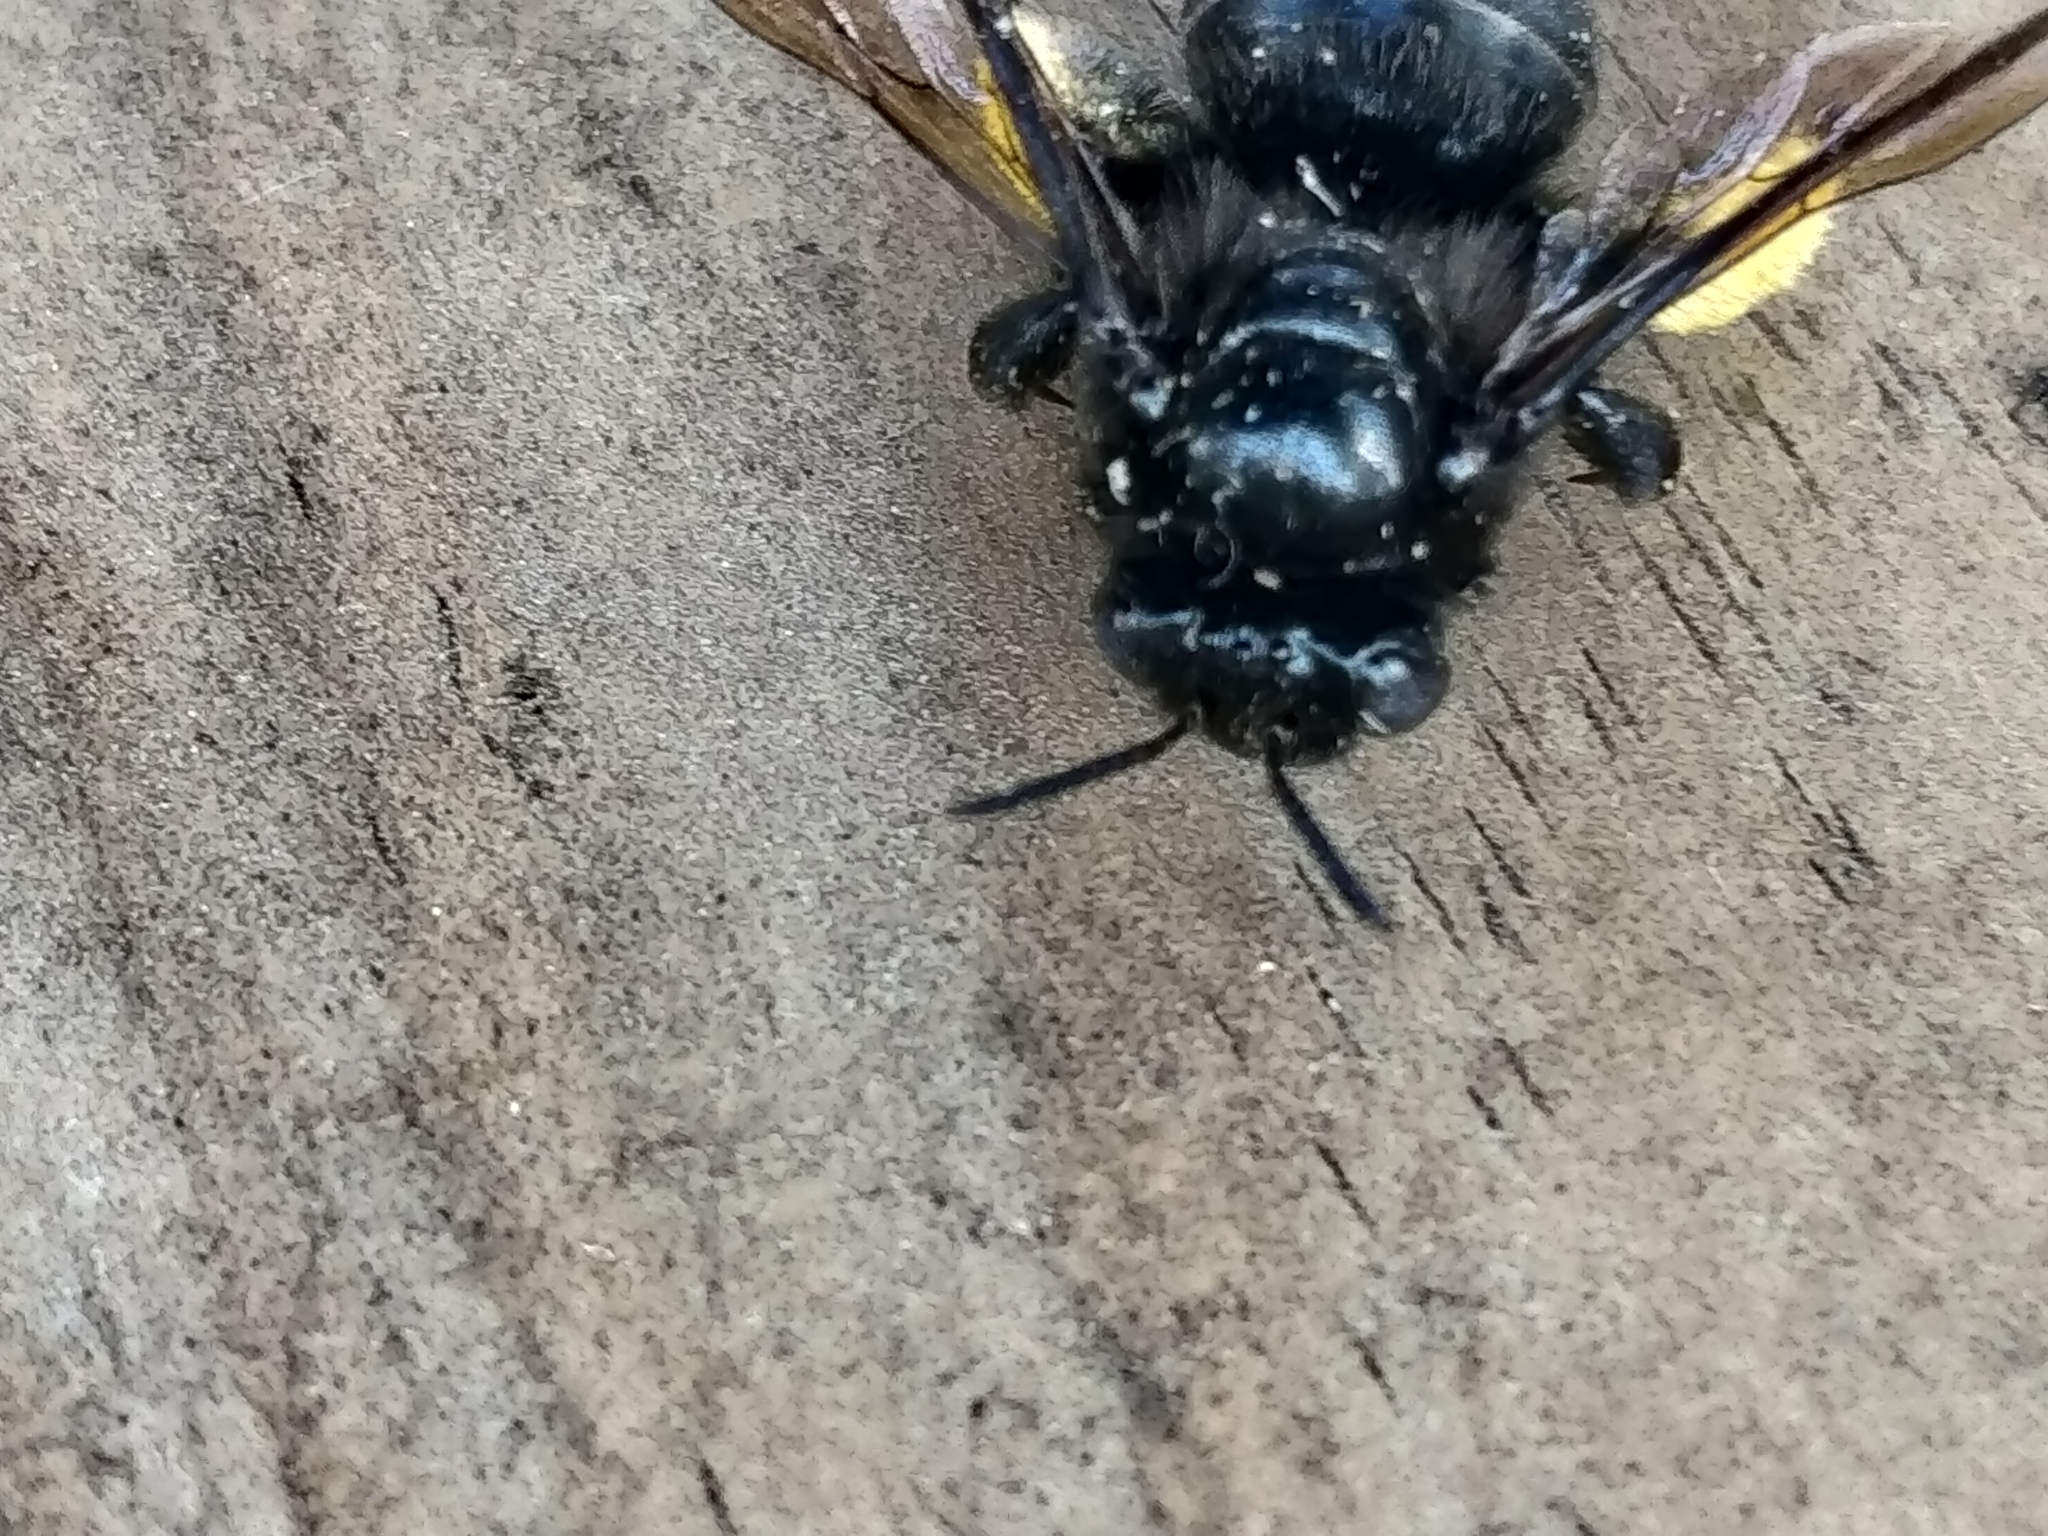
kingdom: Animalia
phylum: Arthropoda
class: Insecta
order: Hymenoptera
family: Apidae
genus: Melissodes
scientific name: Melissodes bimaculatus
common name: Two-spotted long-horned bee
